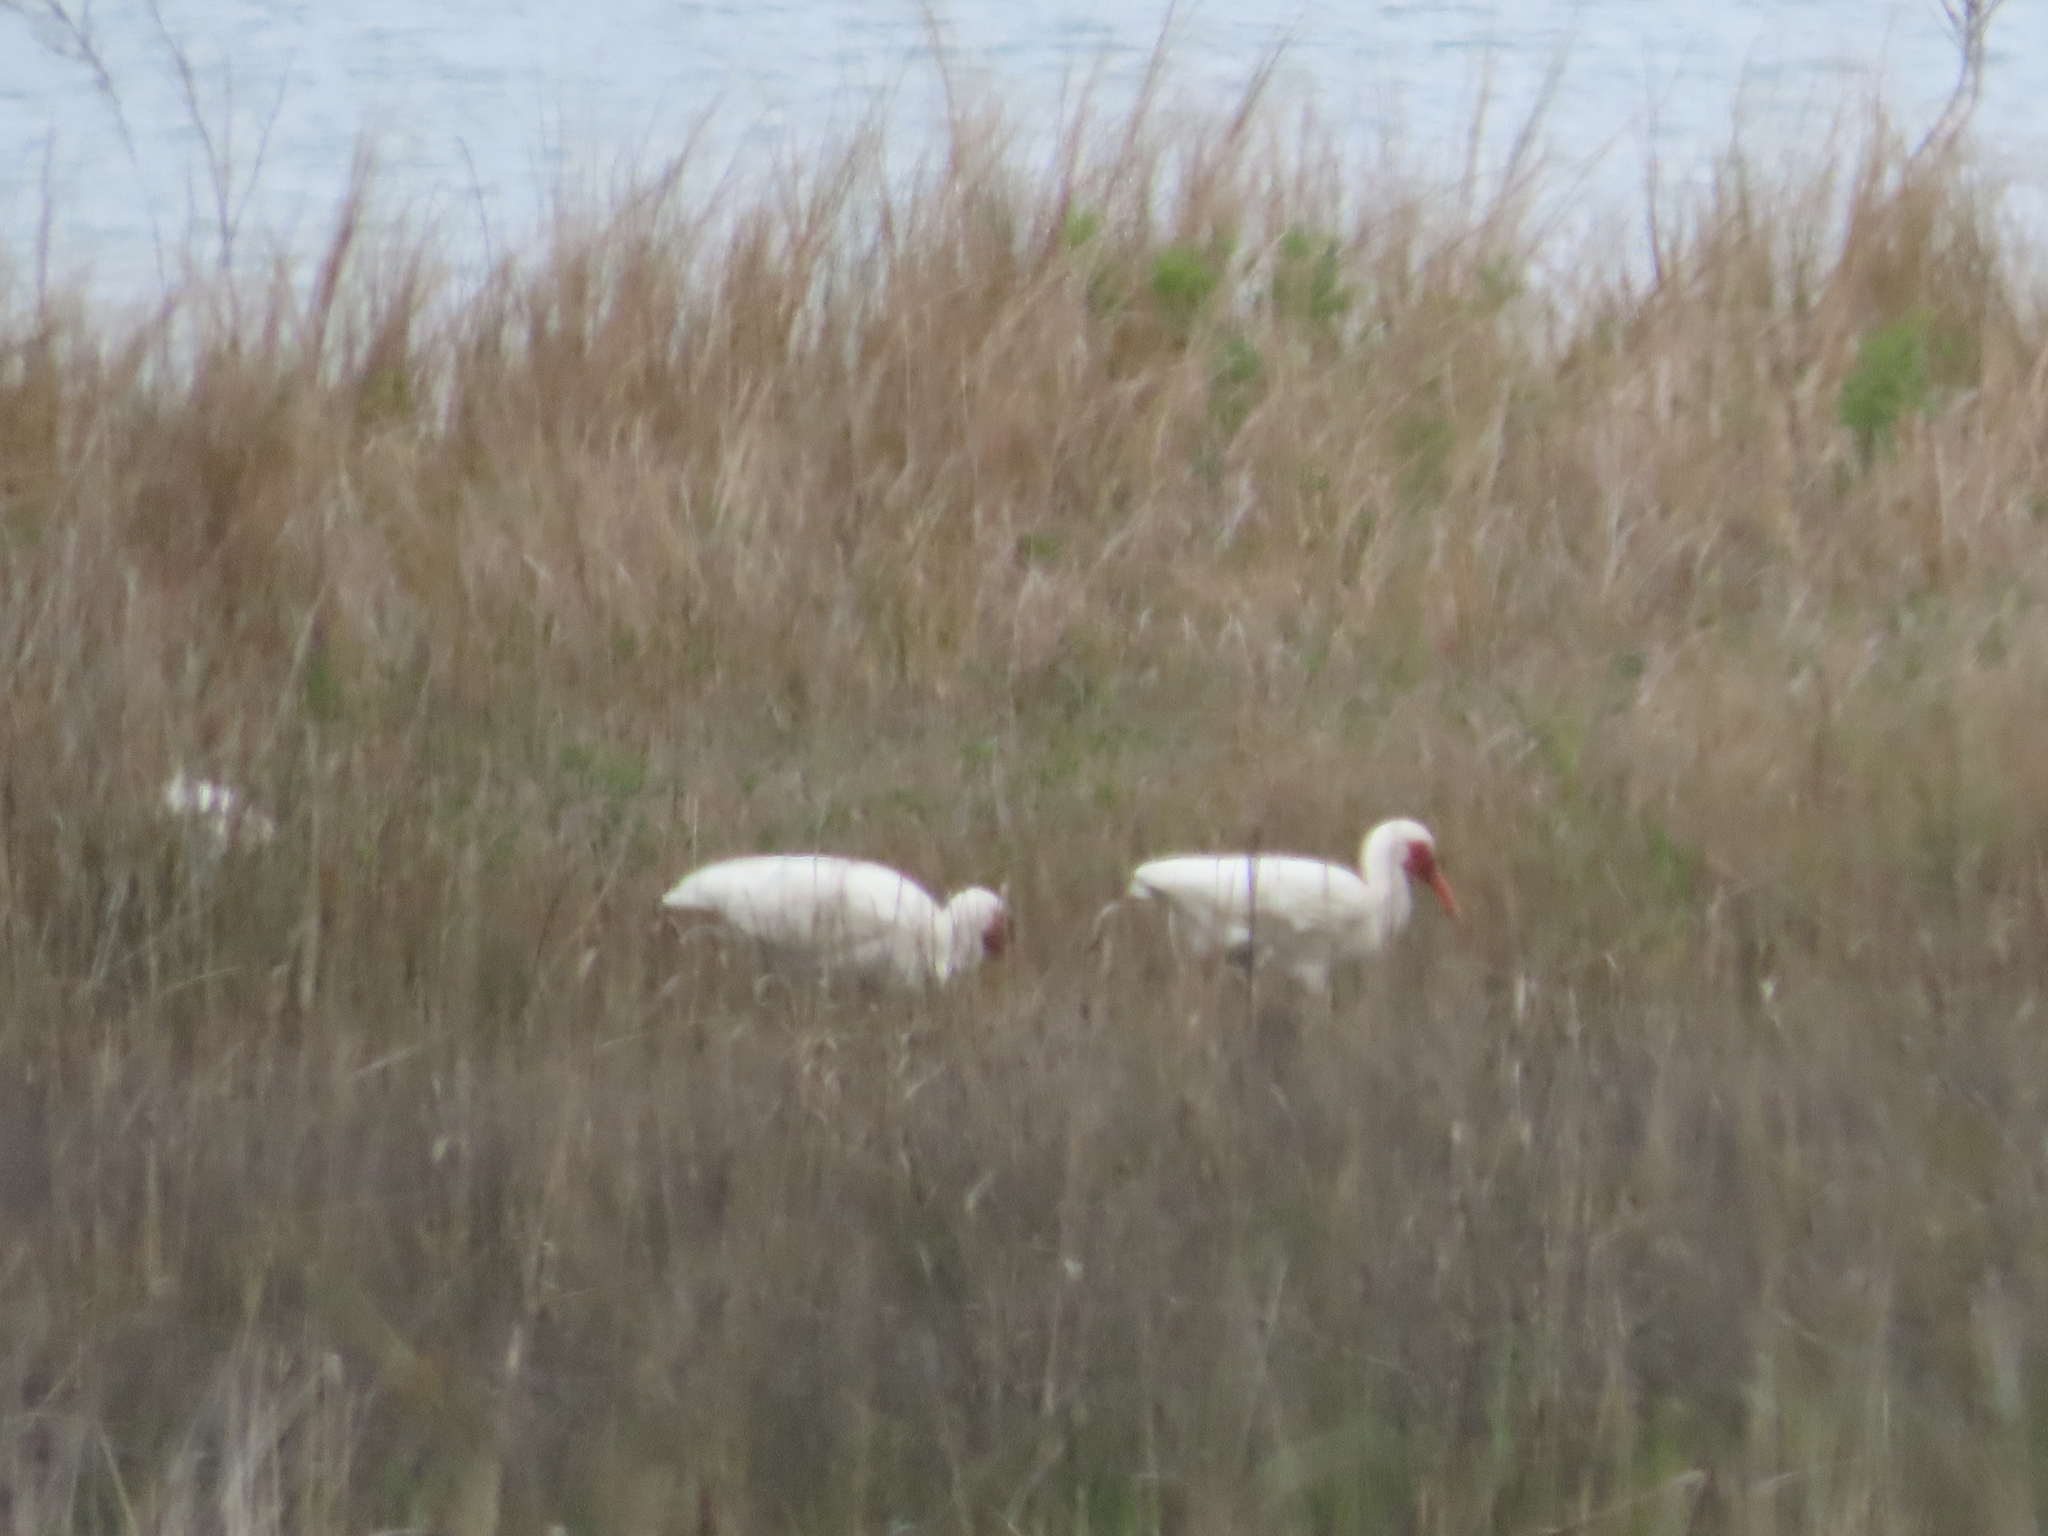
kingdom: Animalia
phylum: Chordata
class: Aves
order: Pelecaniformes
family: Threskiornithidae
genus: Eudocimus
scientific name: Eudocimus albus
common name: White ibis
